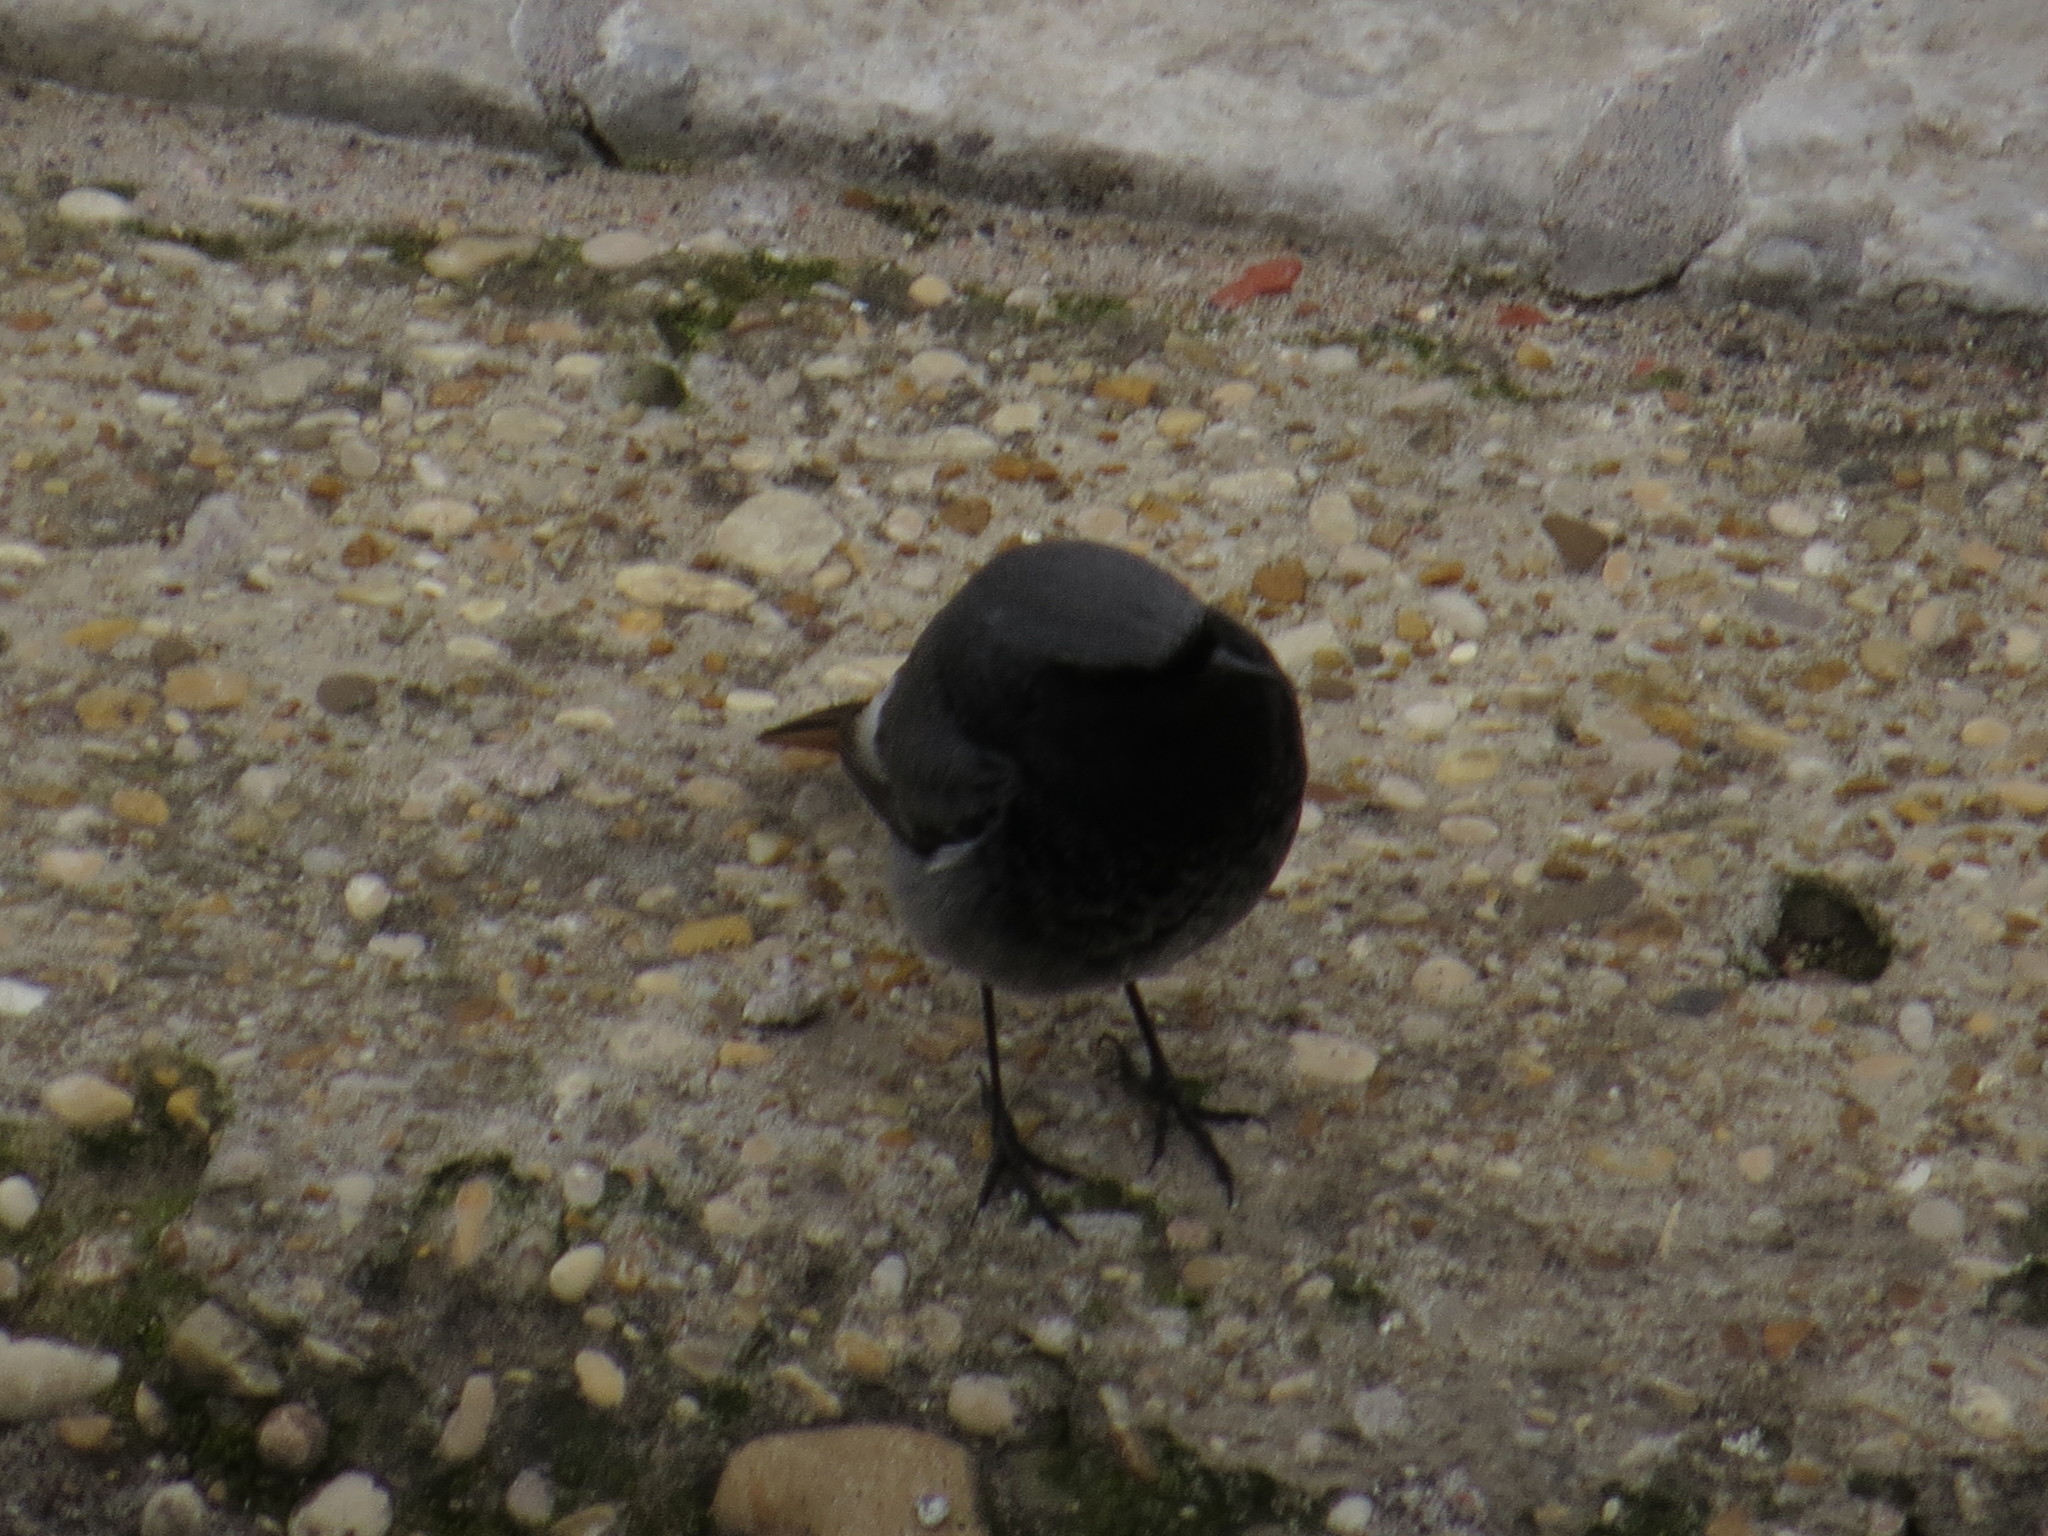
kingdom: Animalia
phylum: Chordata
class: Aves
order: Passeriformes
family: Muscicapidae
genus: Phoenicurus
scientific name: Phoenicurus ochruros
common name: Black redstart
